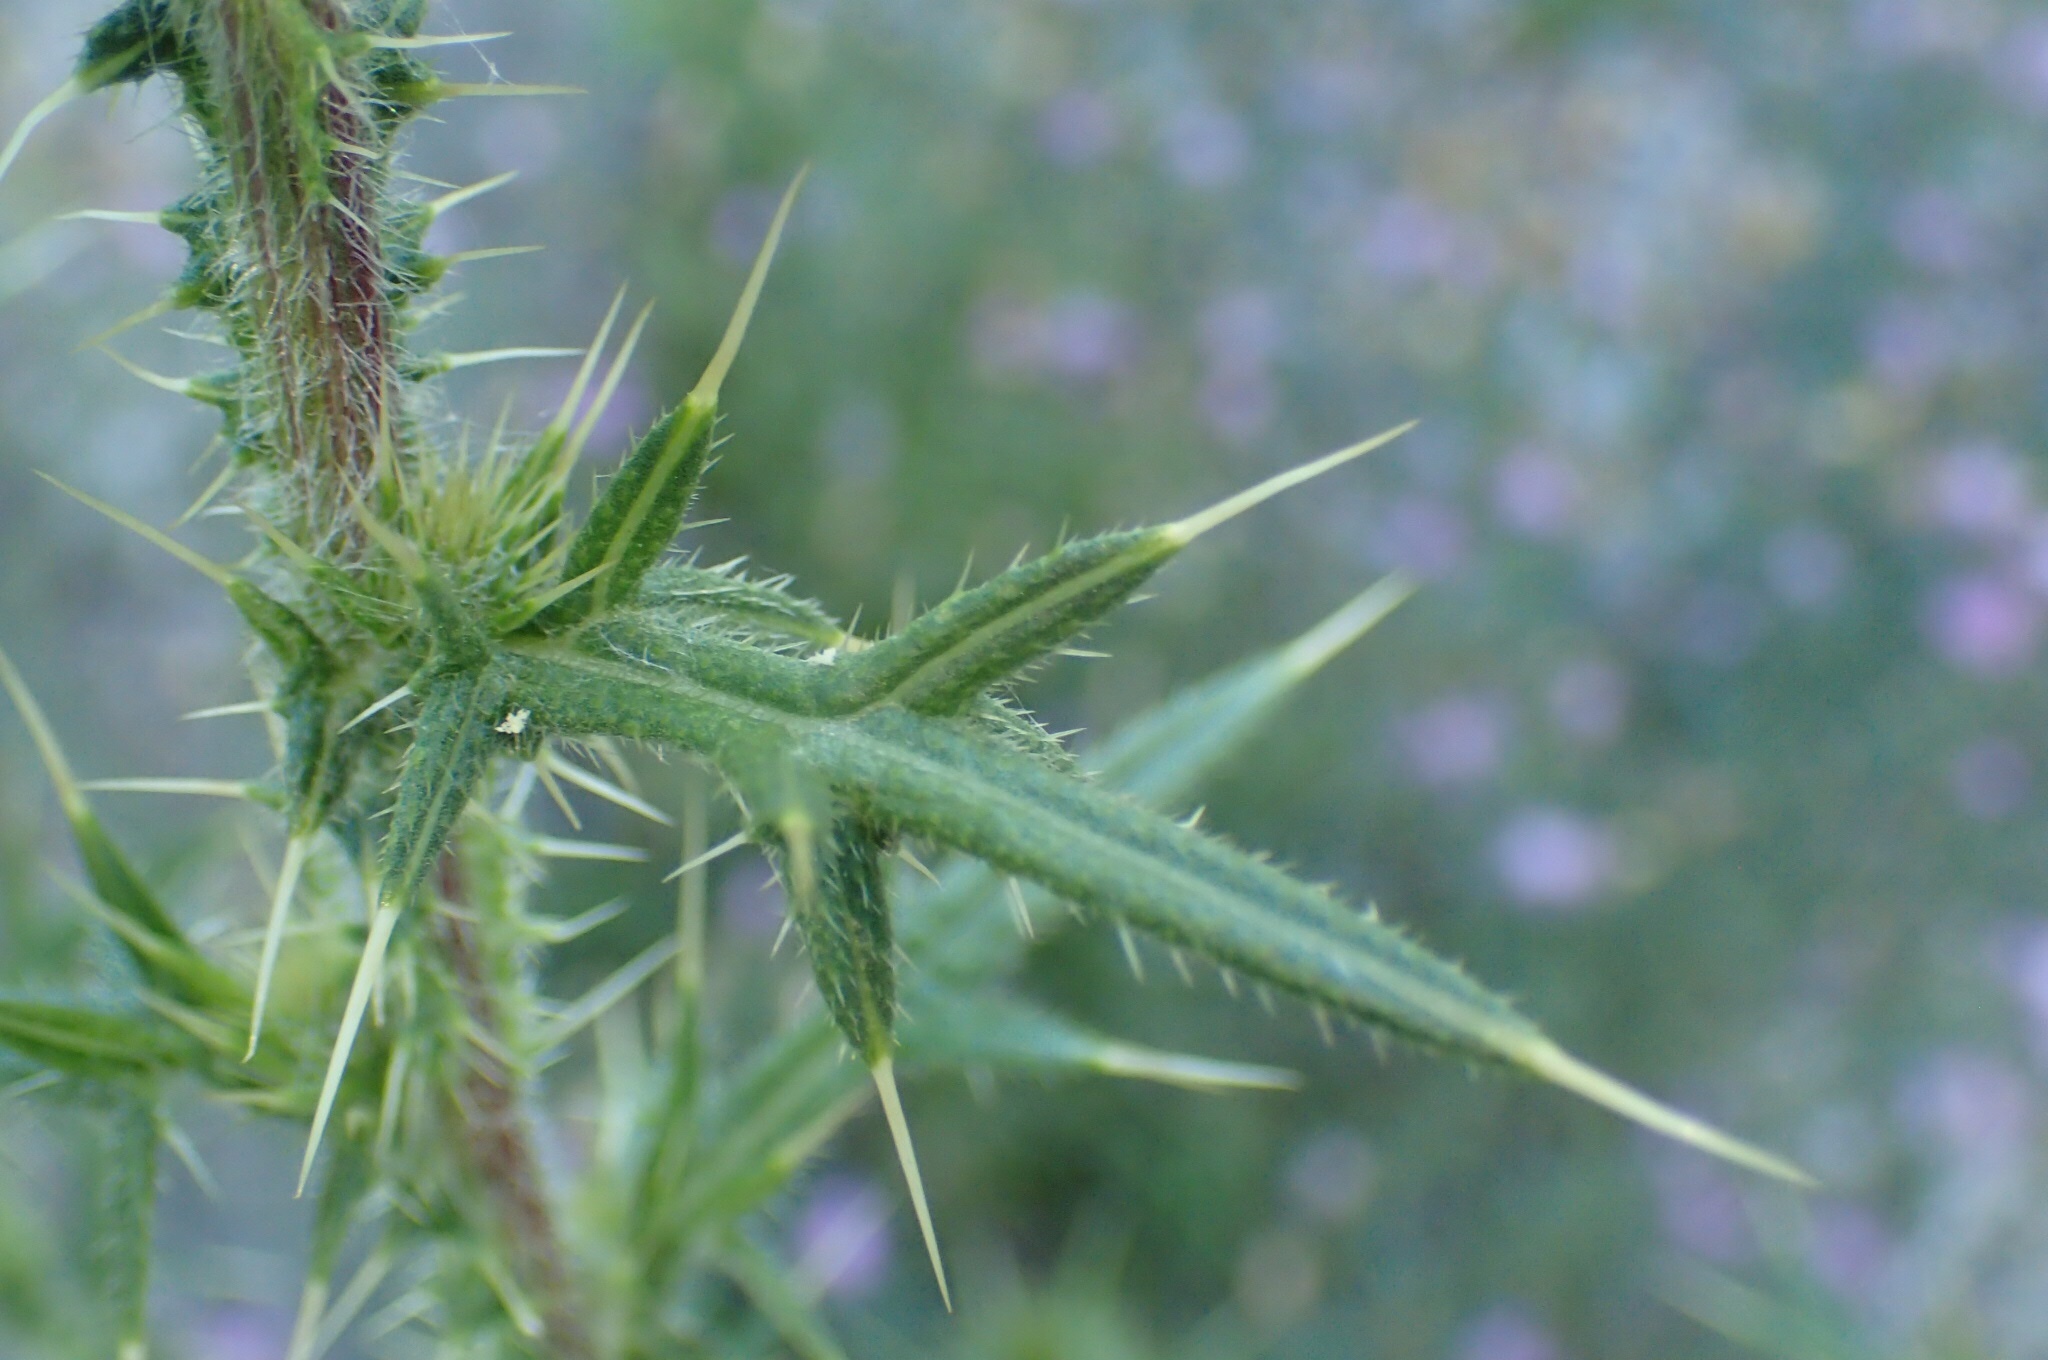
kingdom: Plantae
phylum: Tracheophyta
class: Magnoliopsida
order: Asterales
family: Asteraceae
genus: Cirsium
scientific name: Cirsium vulgare
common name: Bull thistle
